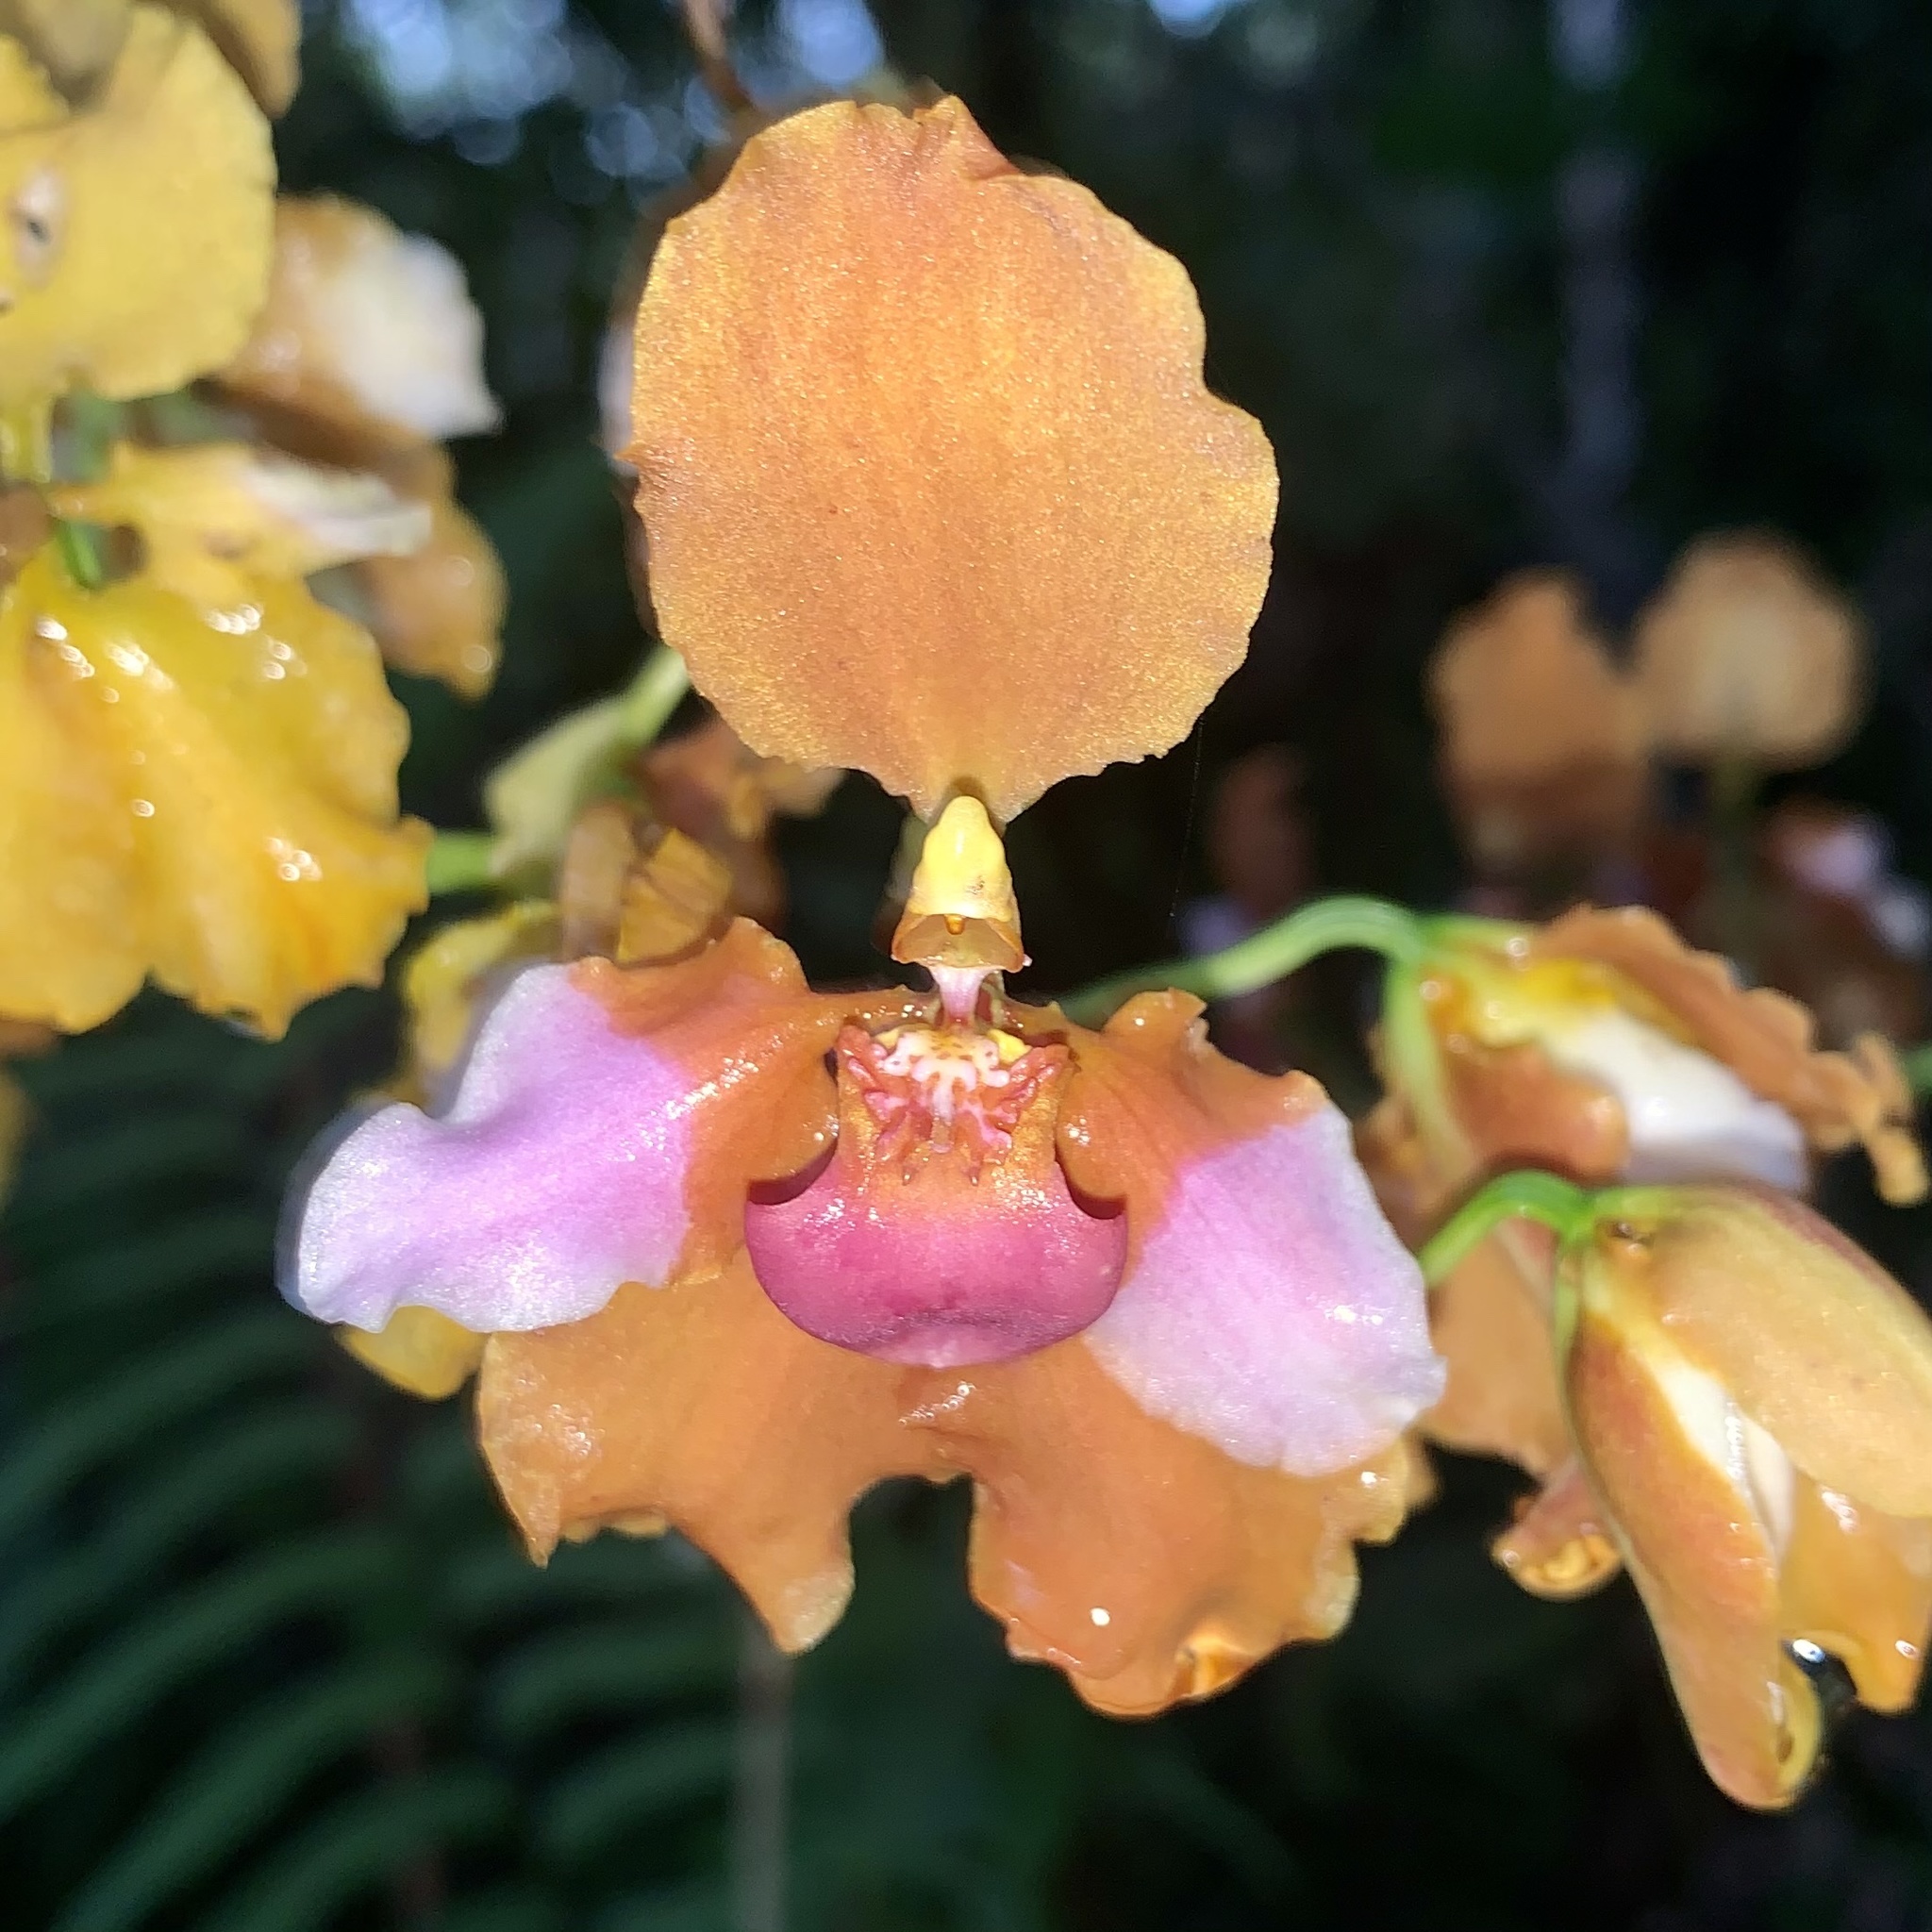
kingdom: Plantae
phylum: Tracheophyta
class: Liliopsida
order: Asparagales
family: Orchidaceae
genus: Cyrtochilum
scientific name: Cyrtochilum volubile
